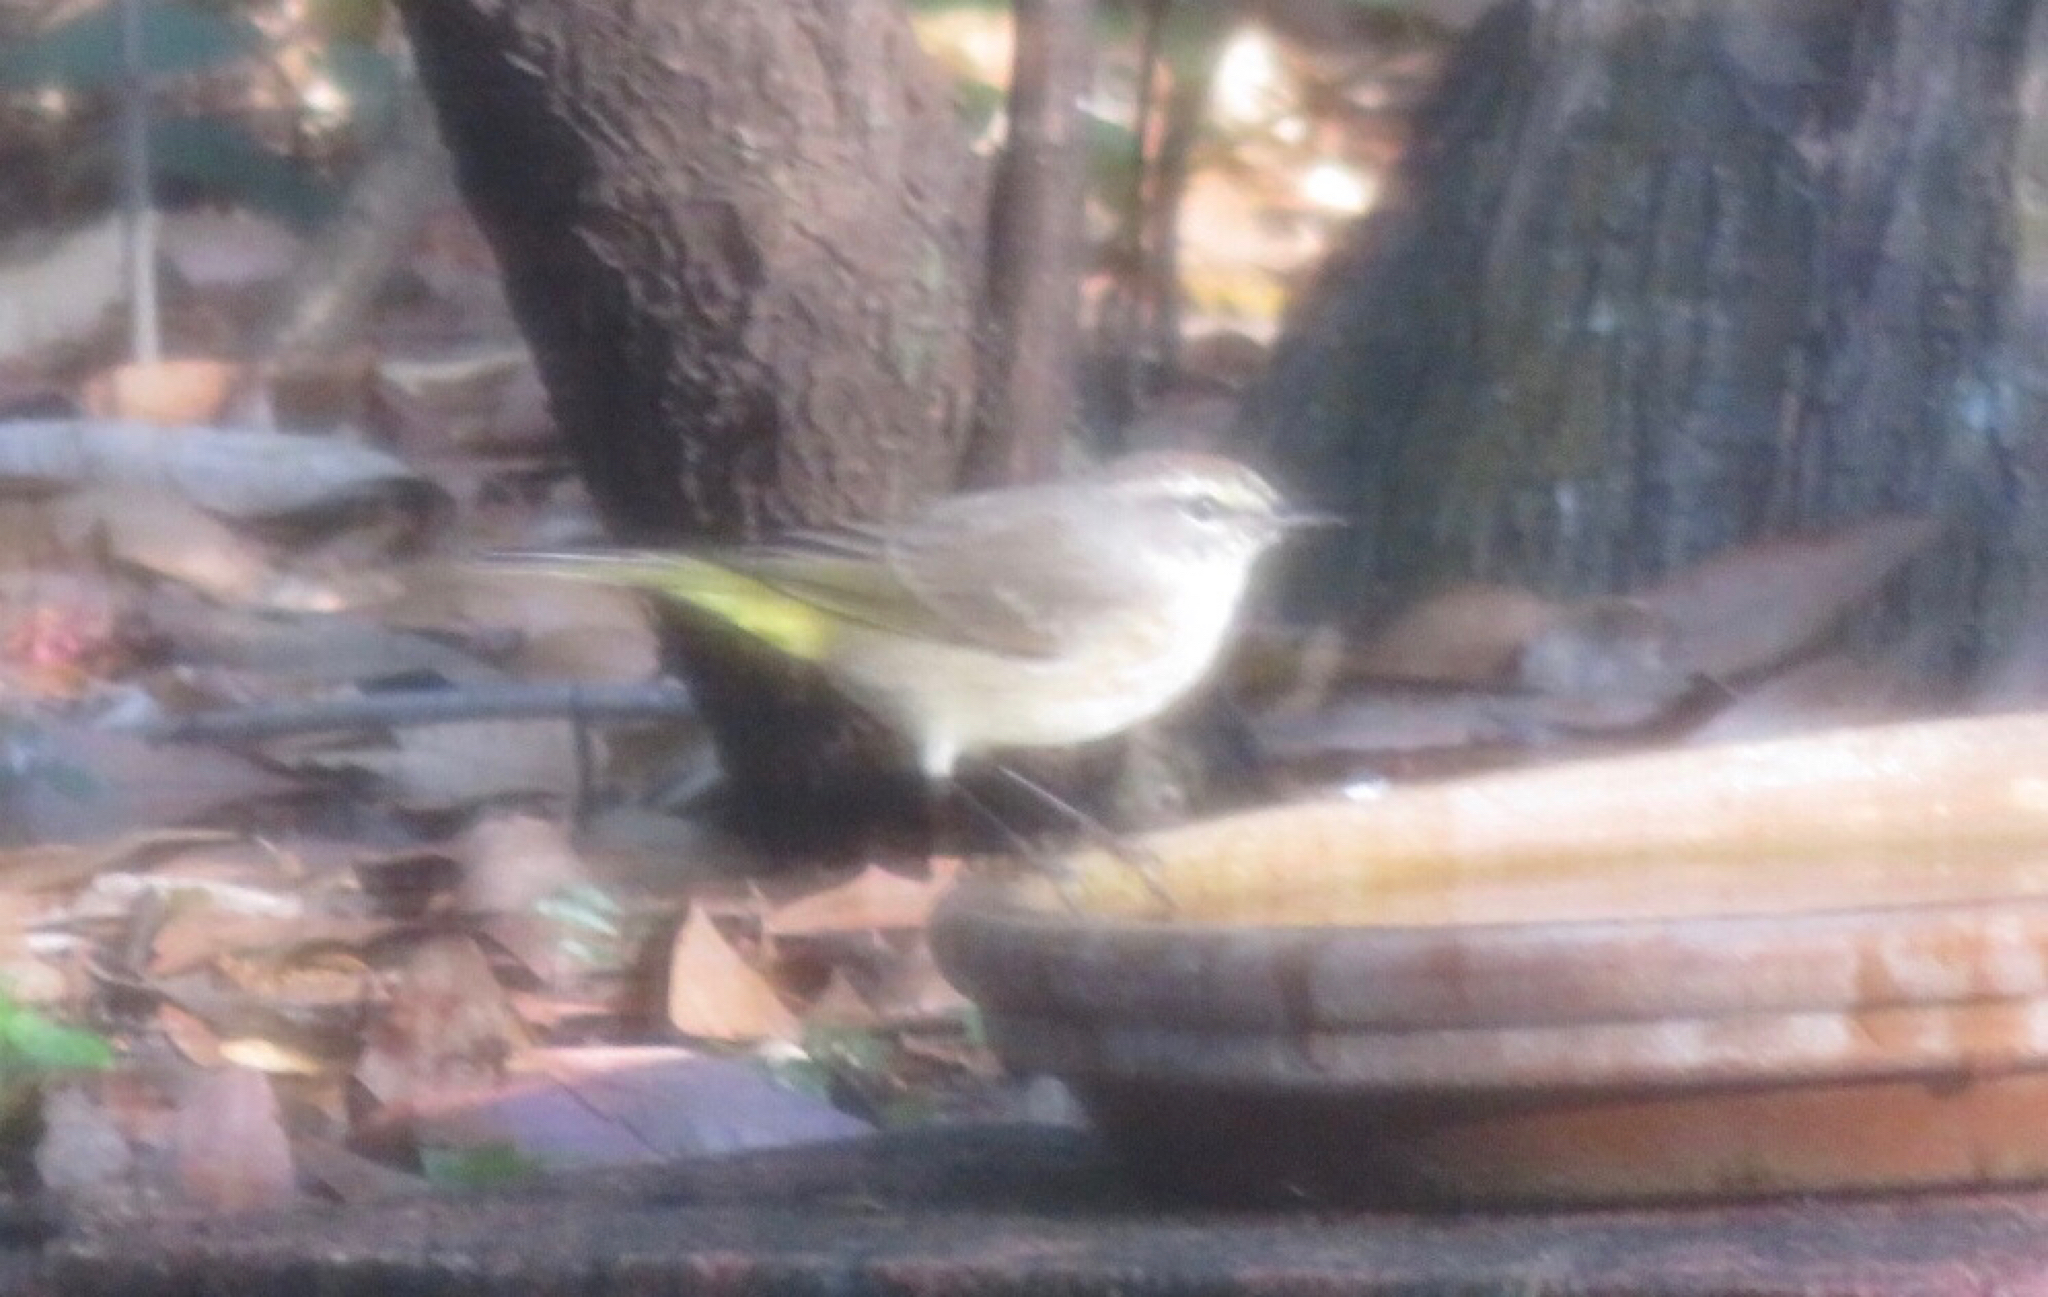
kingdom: Animalia
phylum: Chordata
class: Aves
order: Passeriformes
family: Parulidae
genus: Setophaga
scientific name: Setophaga palmarum
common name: Palm warbler
